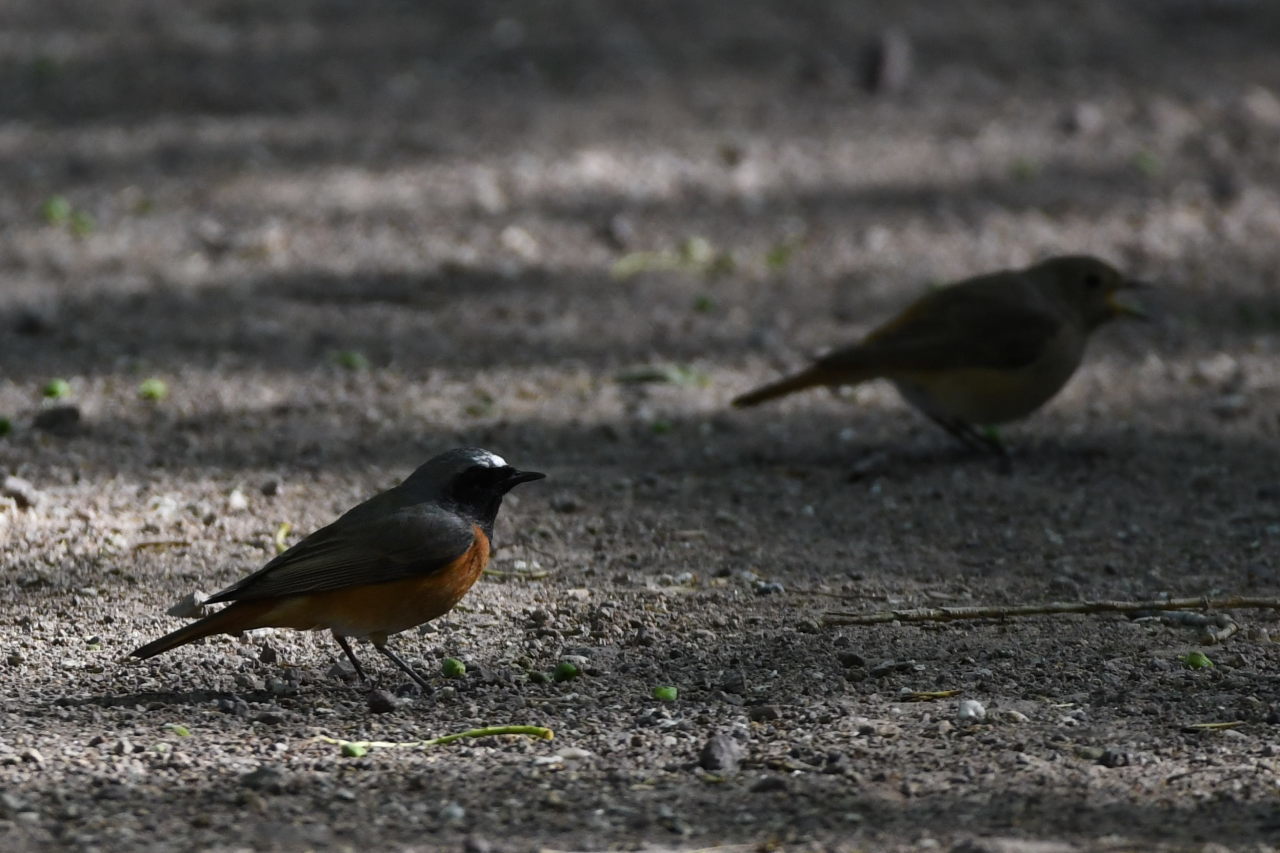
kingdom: Animalia
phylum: Chordata
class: Aves
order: Passeriformes
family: Muscicapidae
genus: Phoenicurus
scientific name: Phoenicurus phoenicurus
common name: Common redstart
